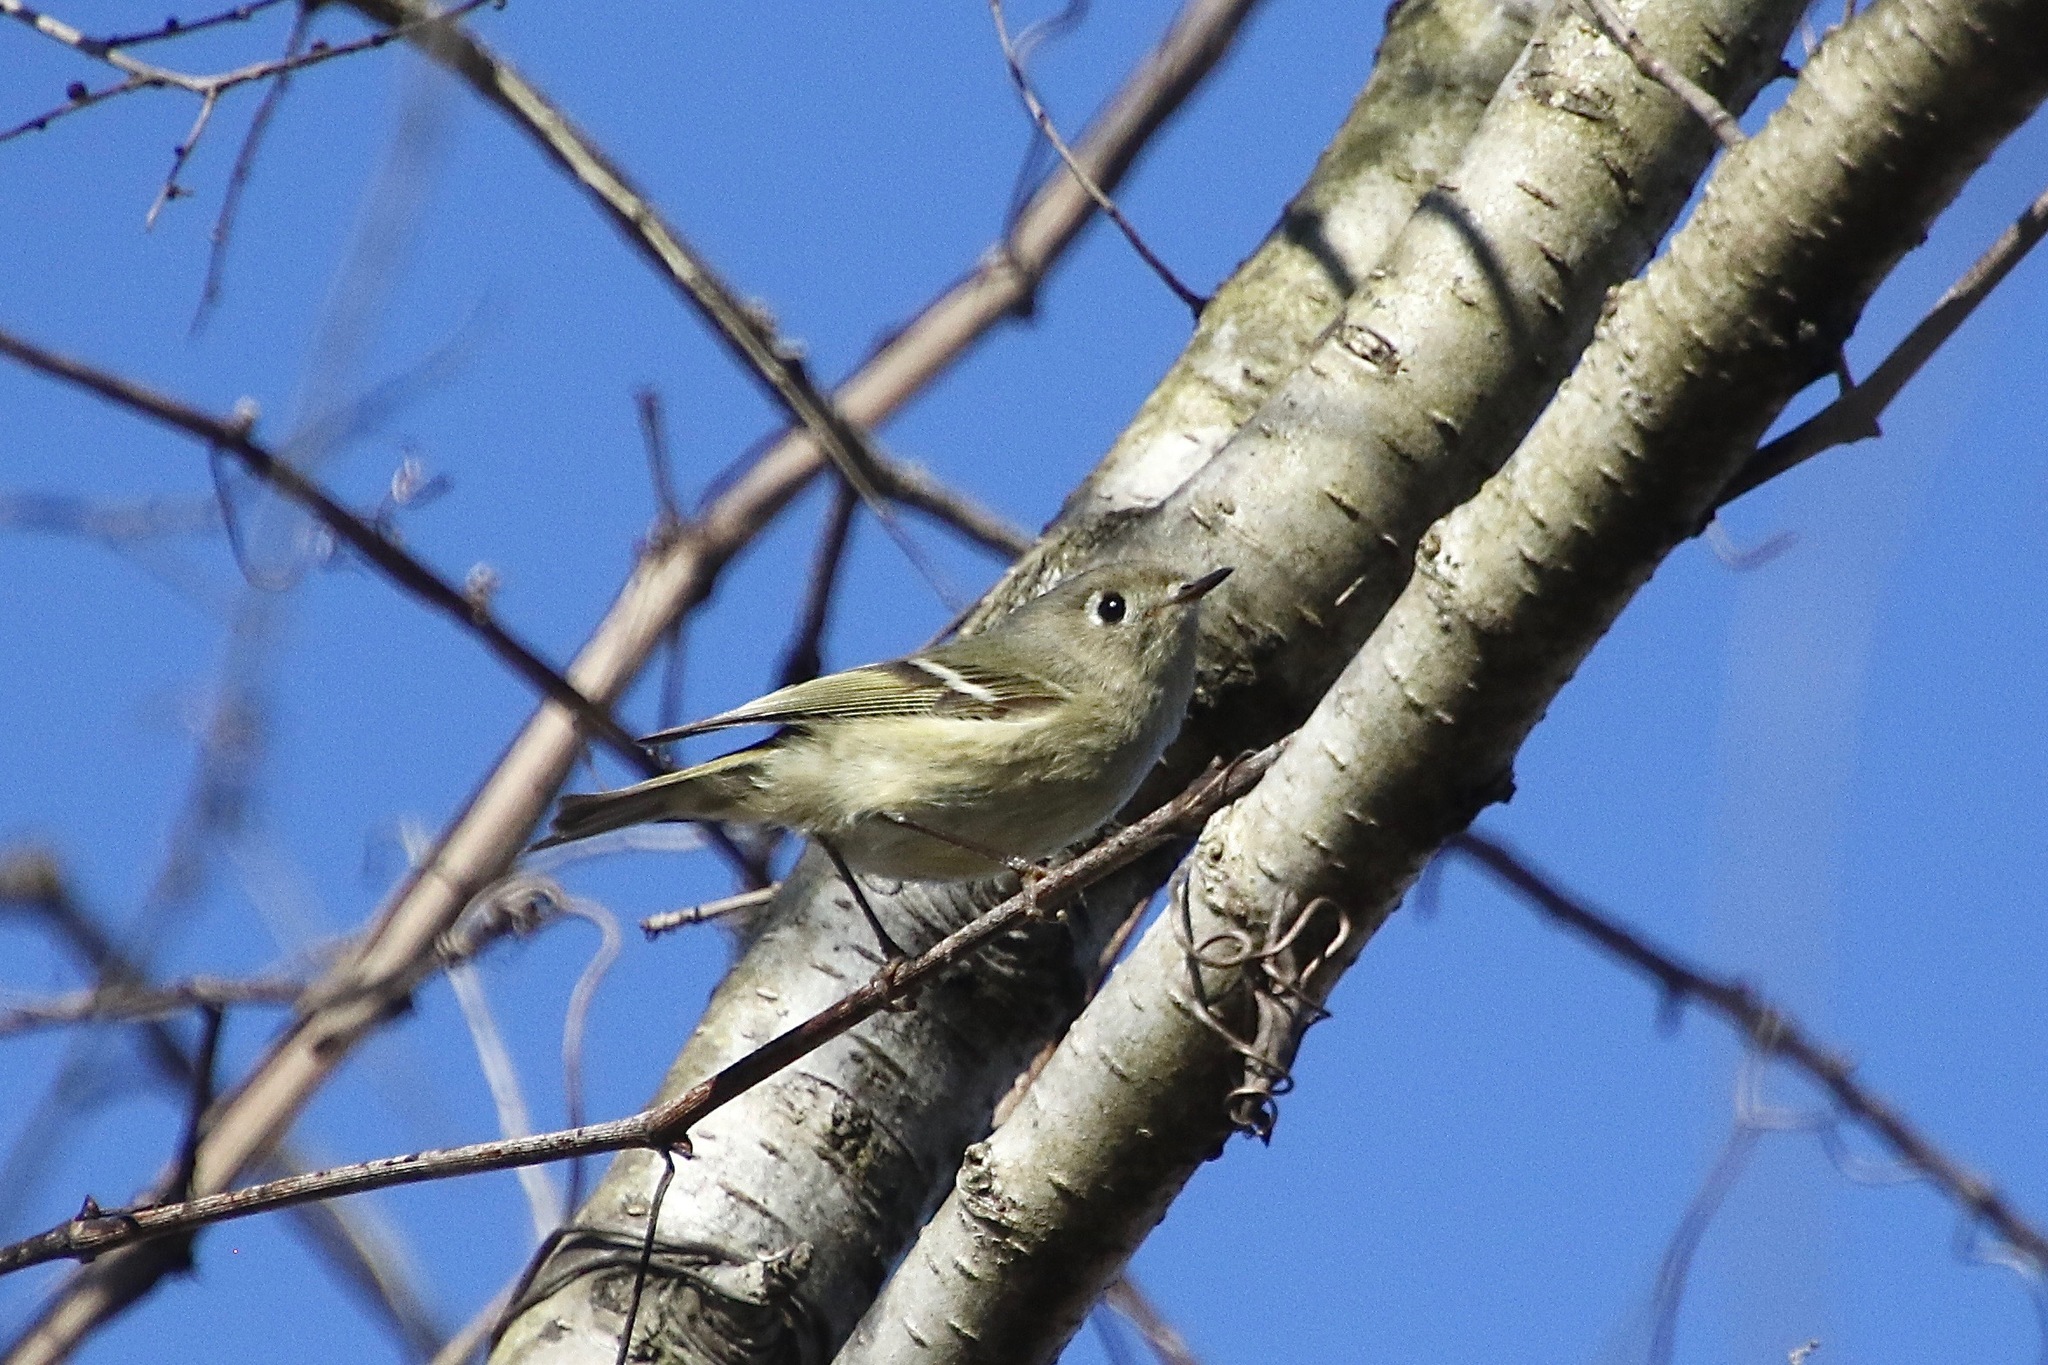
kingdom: Animalia
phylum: Chordata
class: Aves
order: Passeriformes
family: Regulidae
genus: Regulus
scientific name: Regulus calendula
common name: Ruby-crowned kinglet
